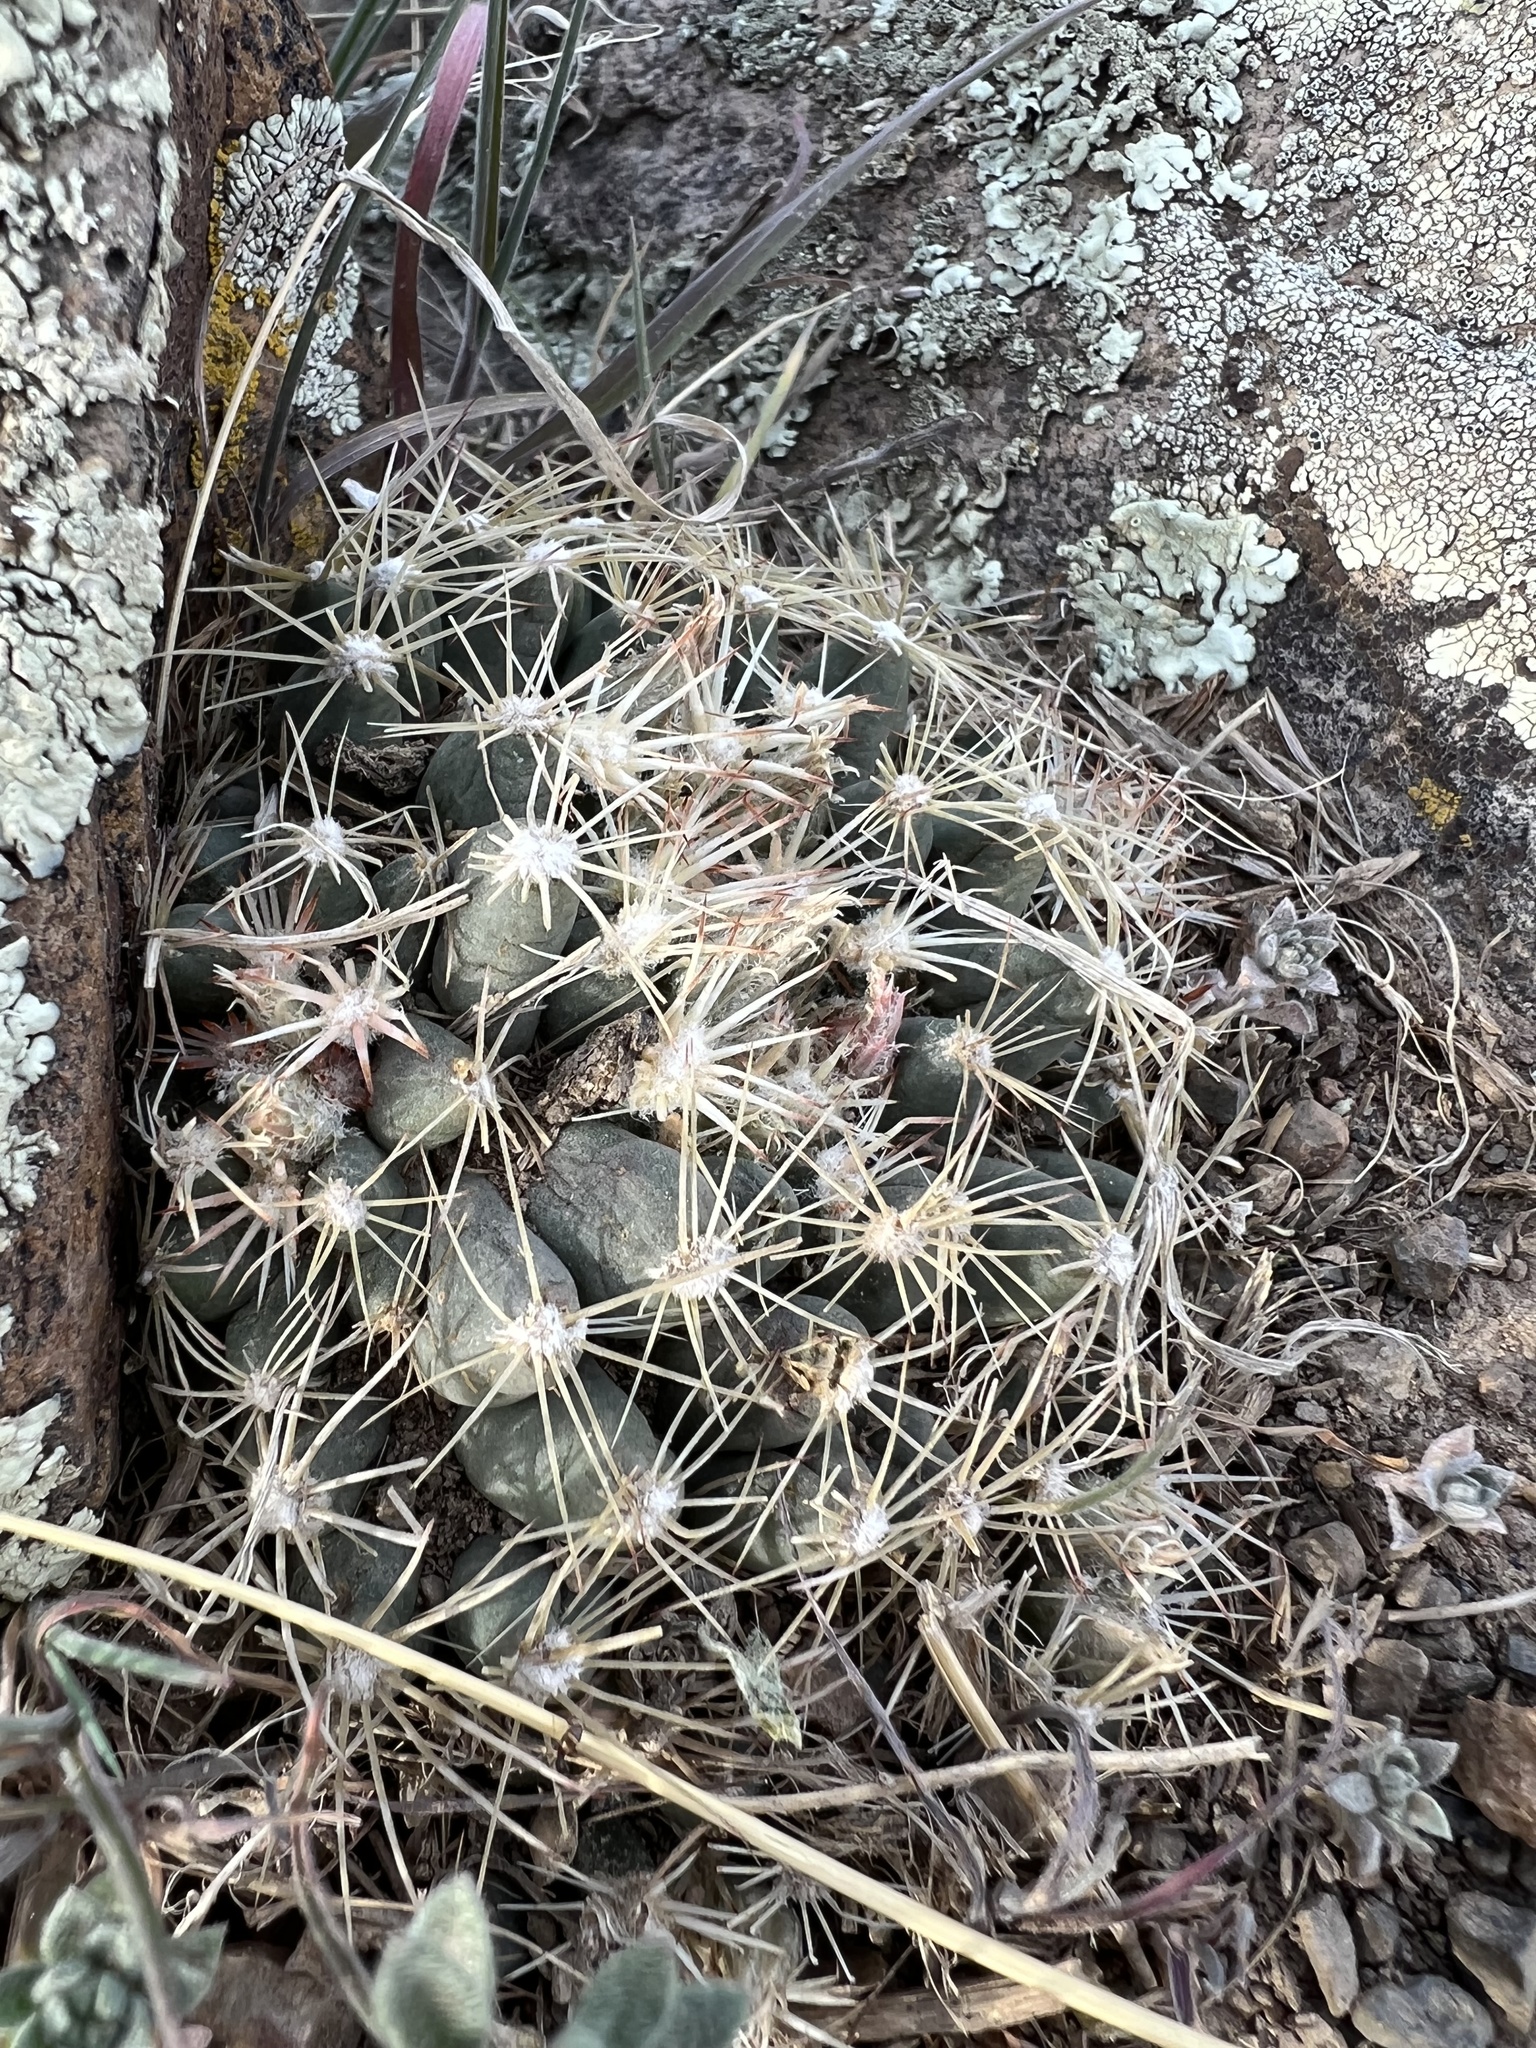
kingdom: Plantae
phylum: Tracheophyta
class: Magnoliopsida
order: Caryophyllales
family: Cactaceae
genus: Pelecyphora
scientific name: Pelecyphora vivipara
